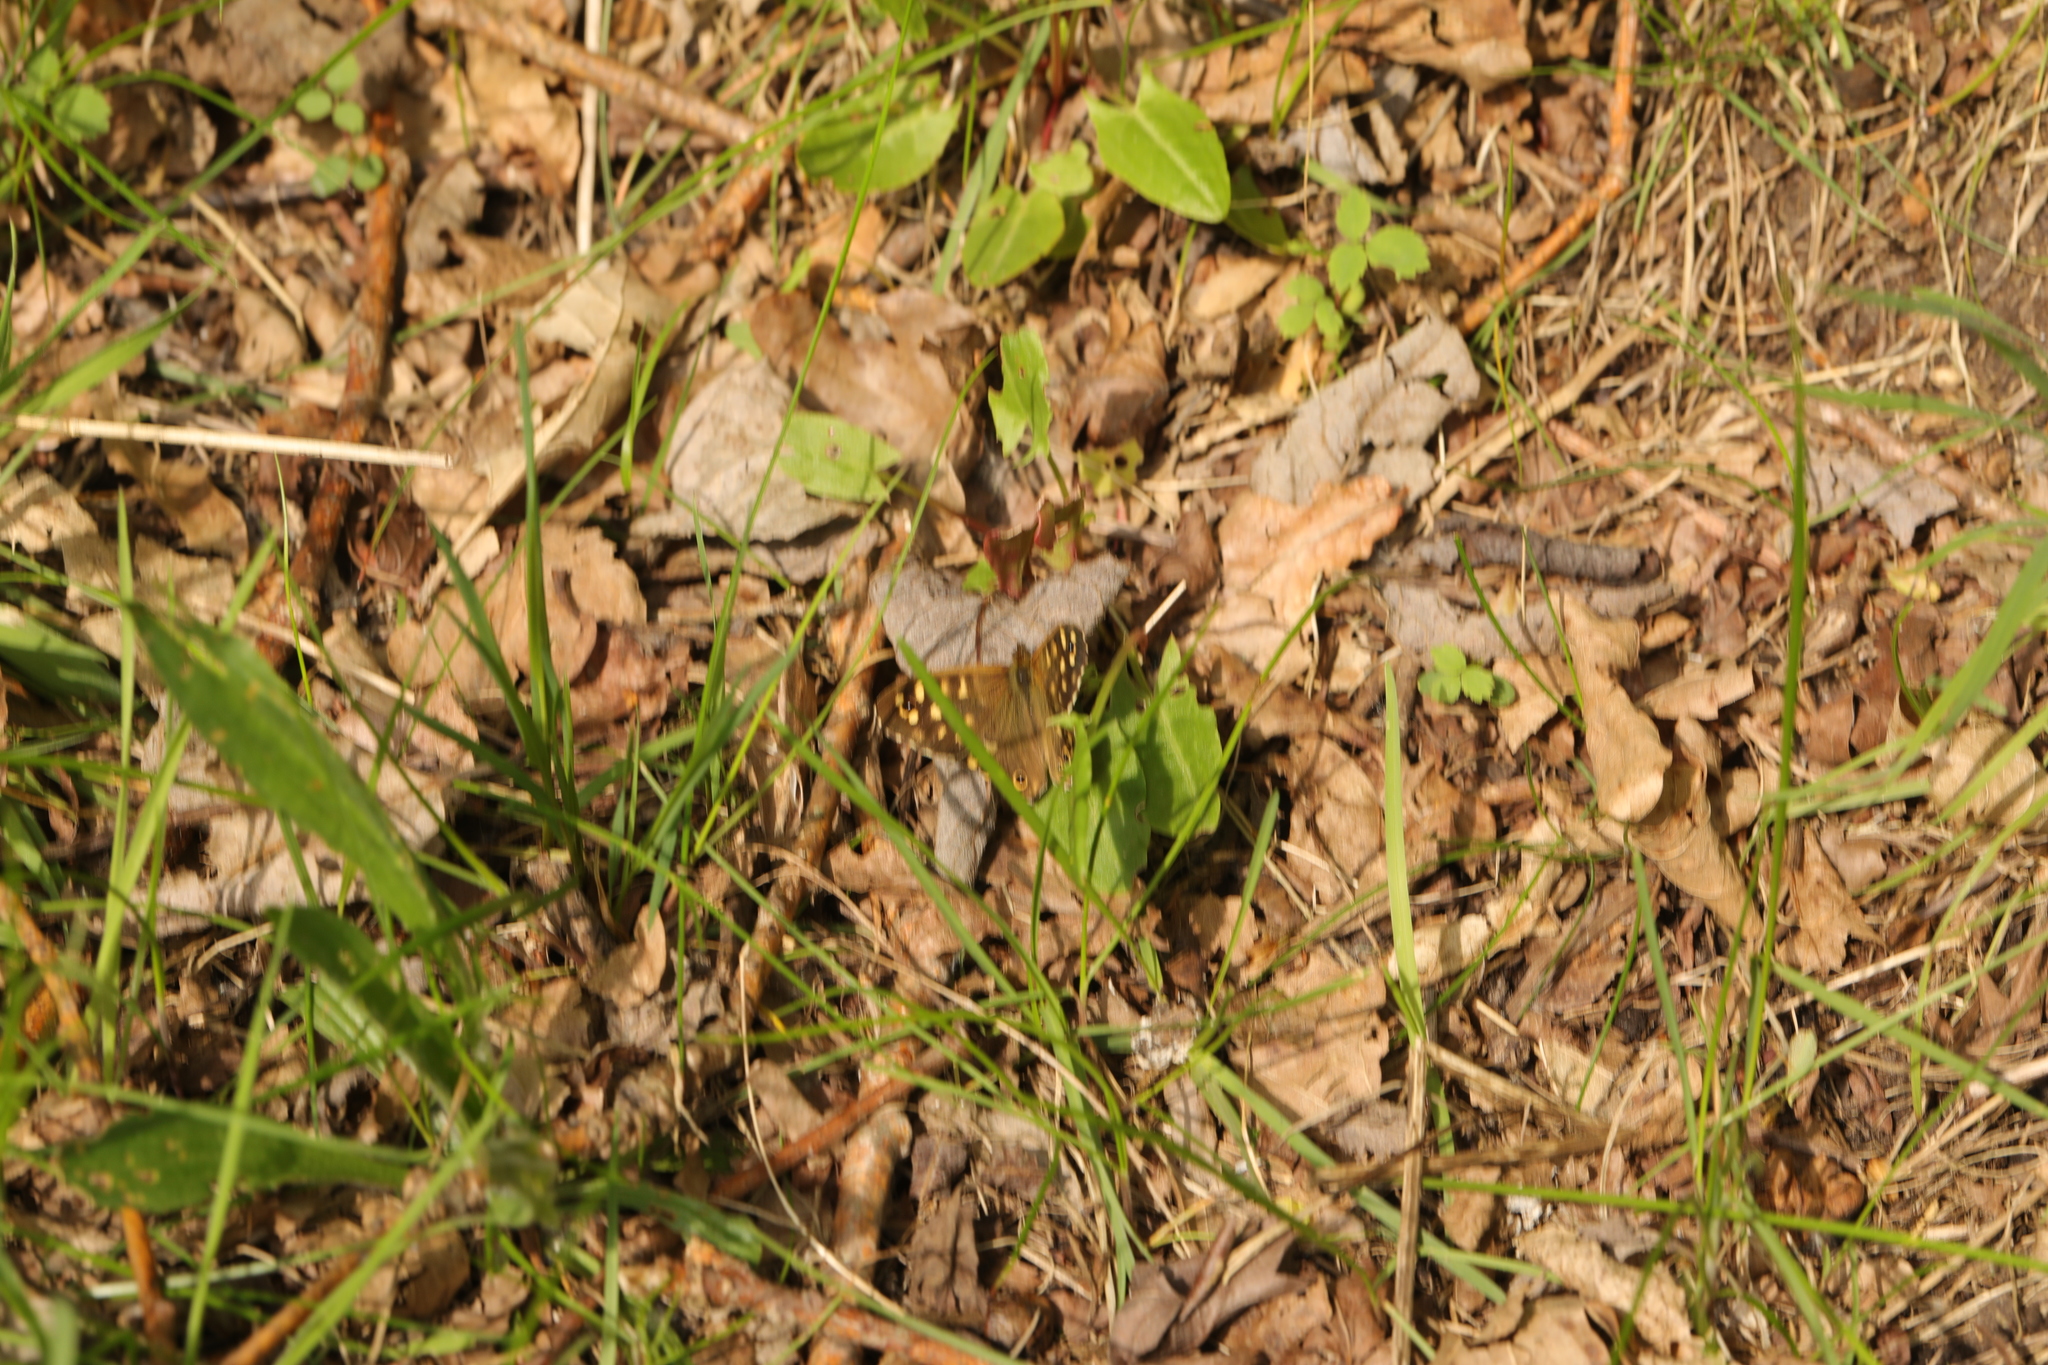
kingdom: Animalia
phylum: Arthropoda
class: Insecta
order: Lepidoptera
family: Nymphalidae
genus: Pararge
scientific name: Pararge aegeria
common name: Speckled wood
